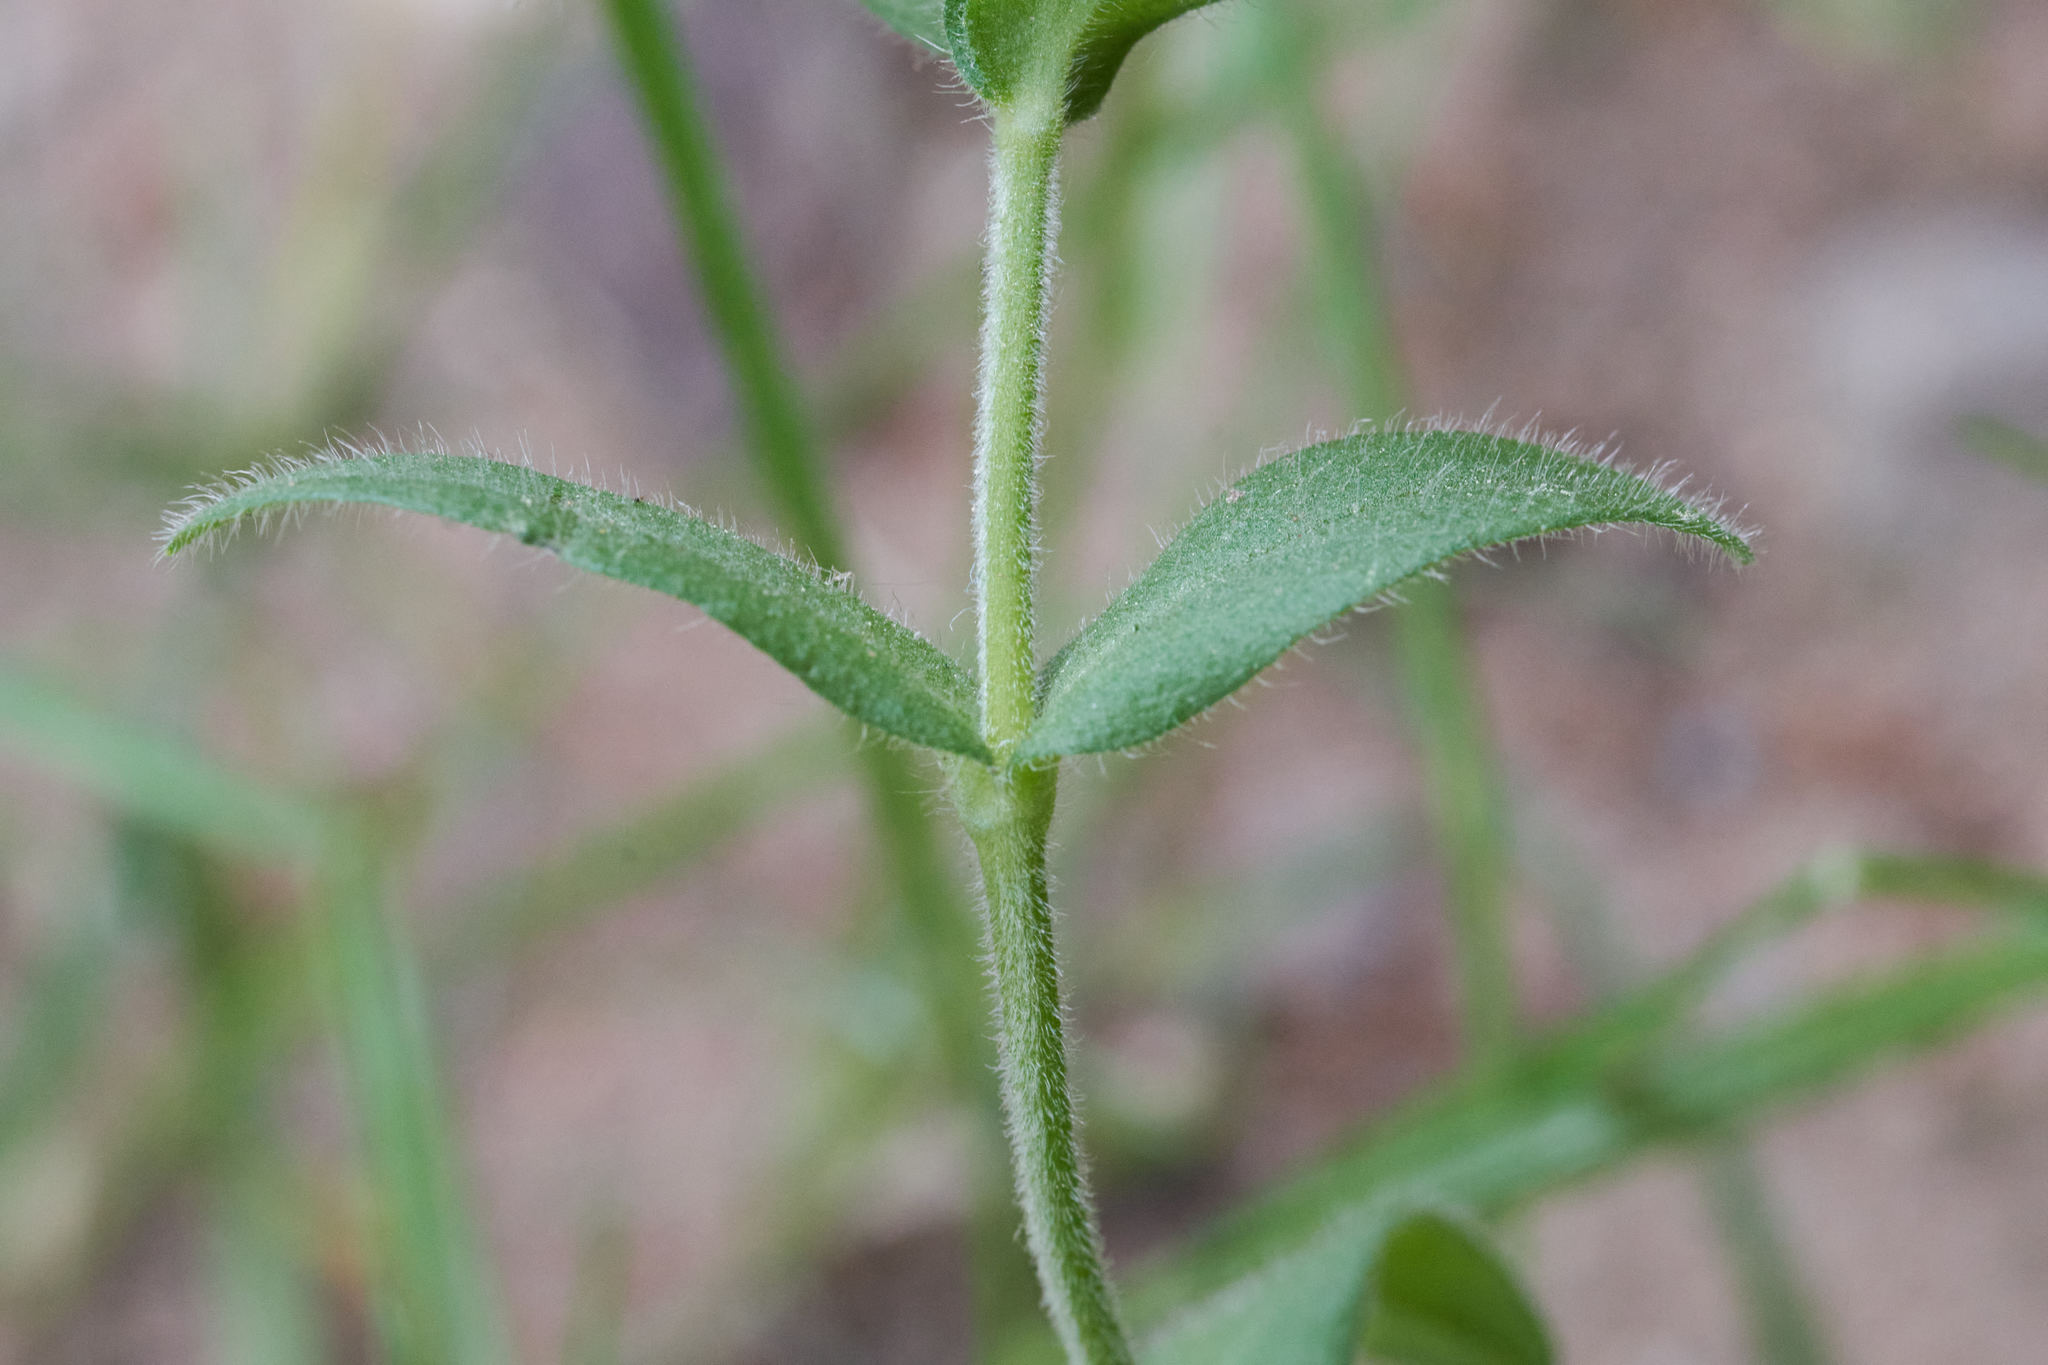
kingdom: Plantae
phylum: Tracheophyta
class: Magnoliopsida
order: Caryophyllales
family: Caryophyllaceae
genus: Cerastium
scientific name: Cerastium fontanum
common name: Common mouse-ear
